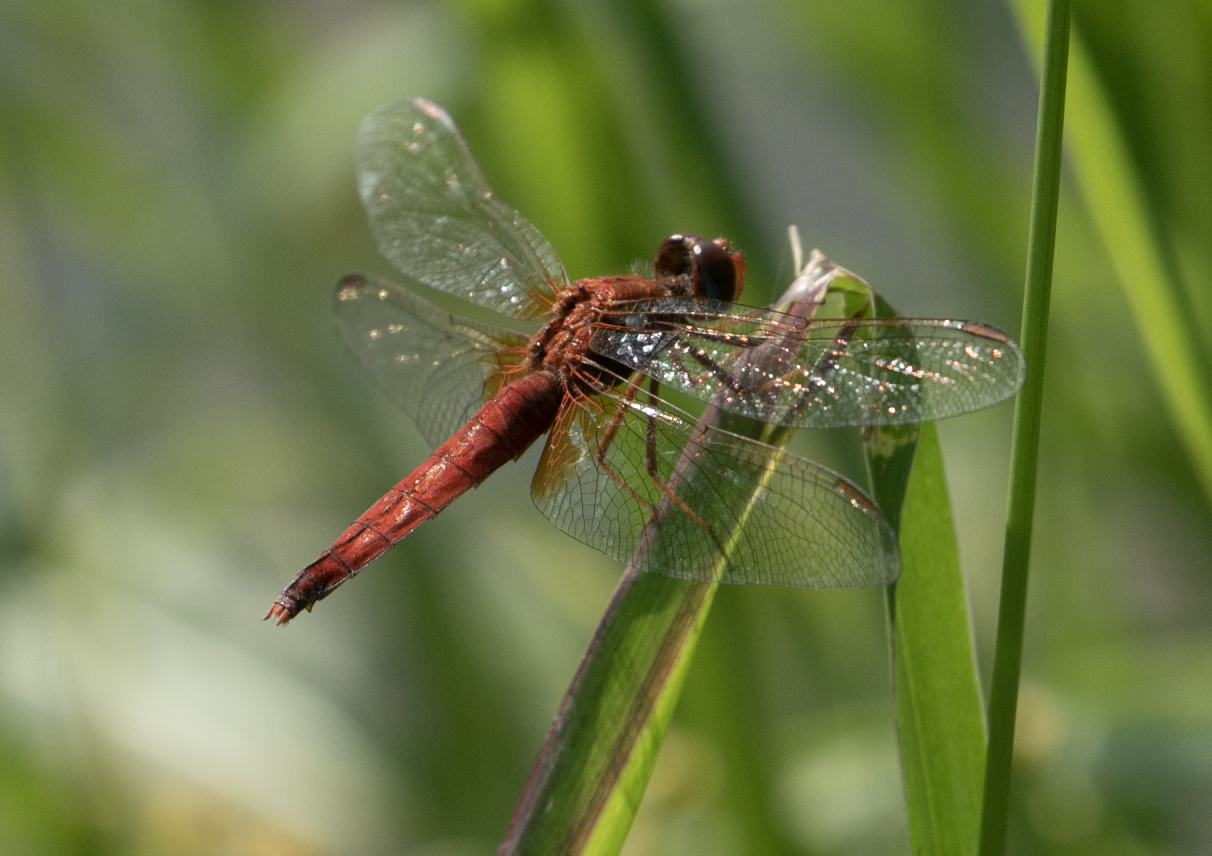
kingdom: Animalia
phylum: Arthropoda
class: Insecta
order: Odonata
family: Libellulidae
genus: Crocothemis
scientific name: Crocothemis erythraea
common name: Scarlet dragonfly
